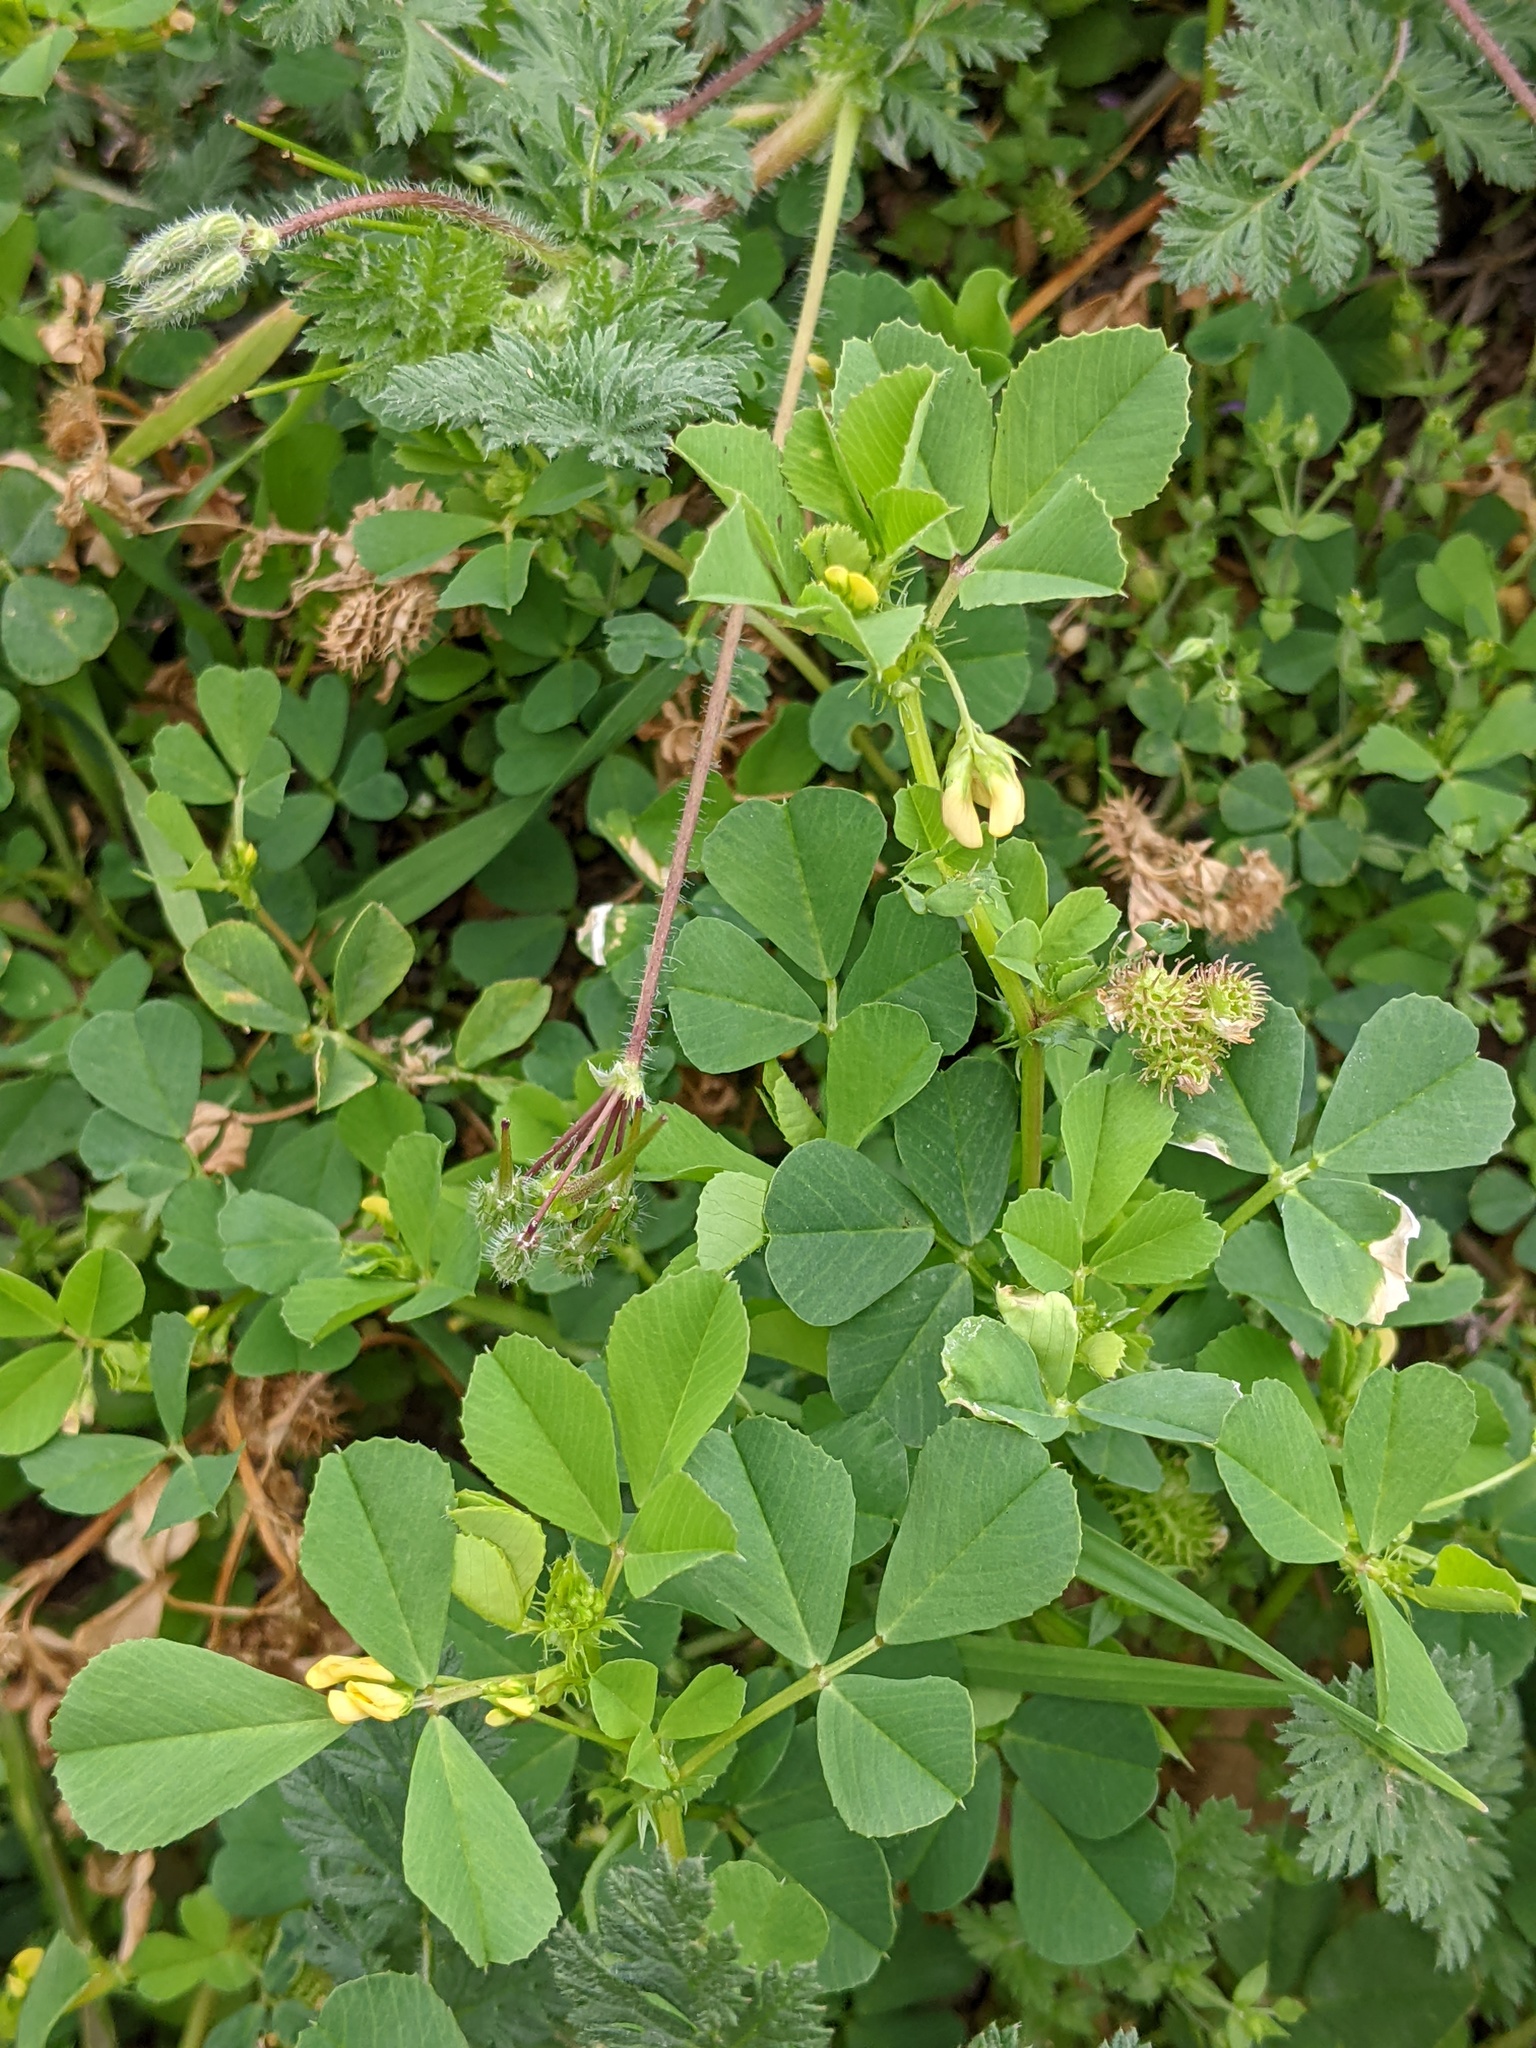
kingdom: Plantae
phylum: Tracheophyta
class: Magnoliopsida
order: Fabales
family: Fabaceae
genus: Medicago
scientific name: Medicago polymorpha
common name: Burclover
